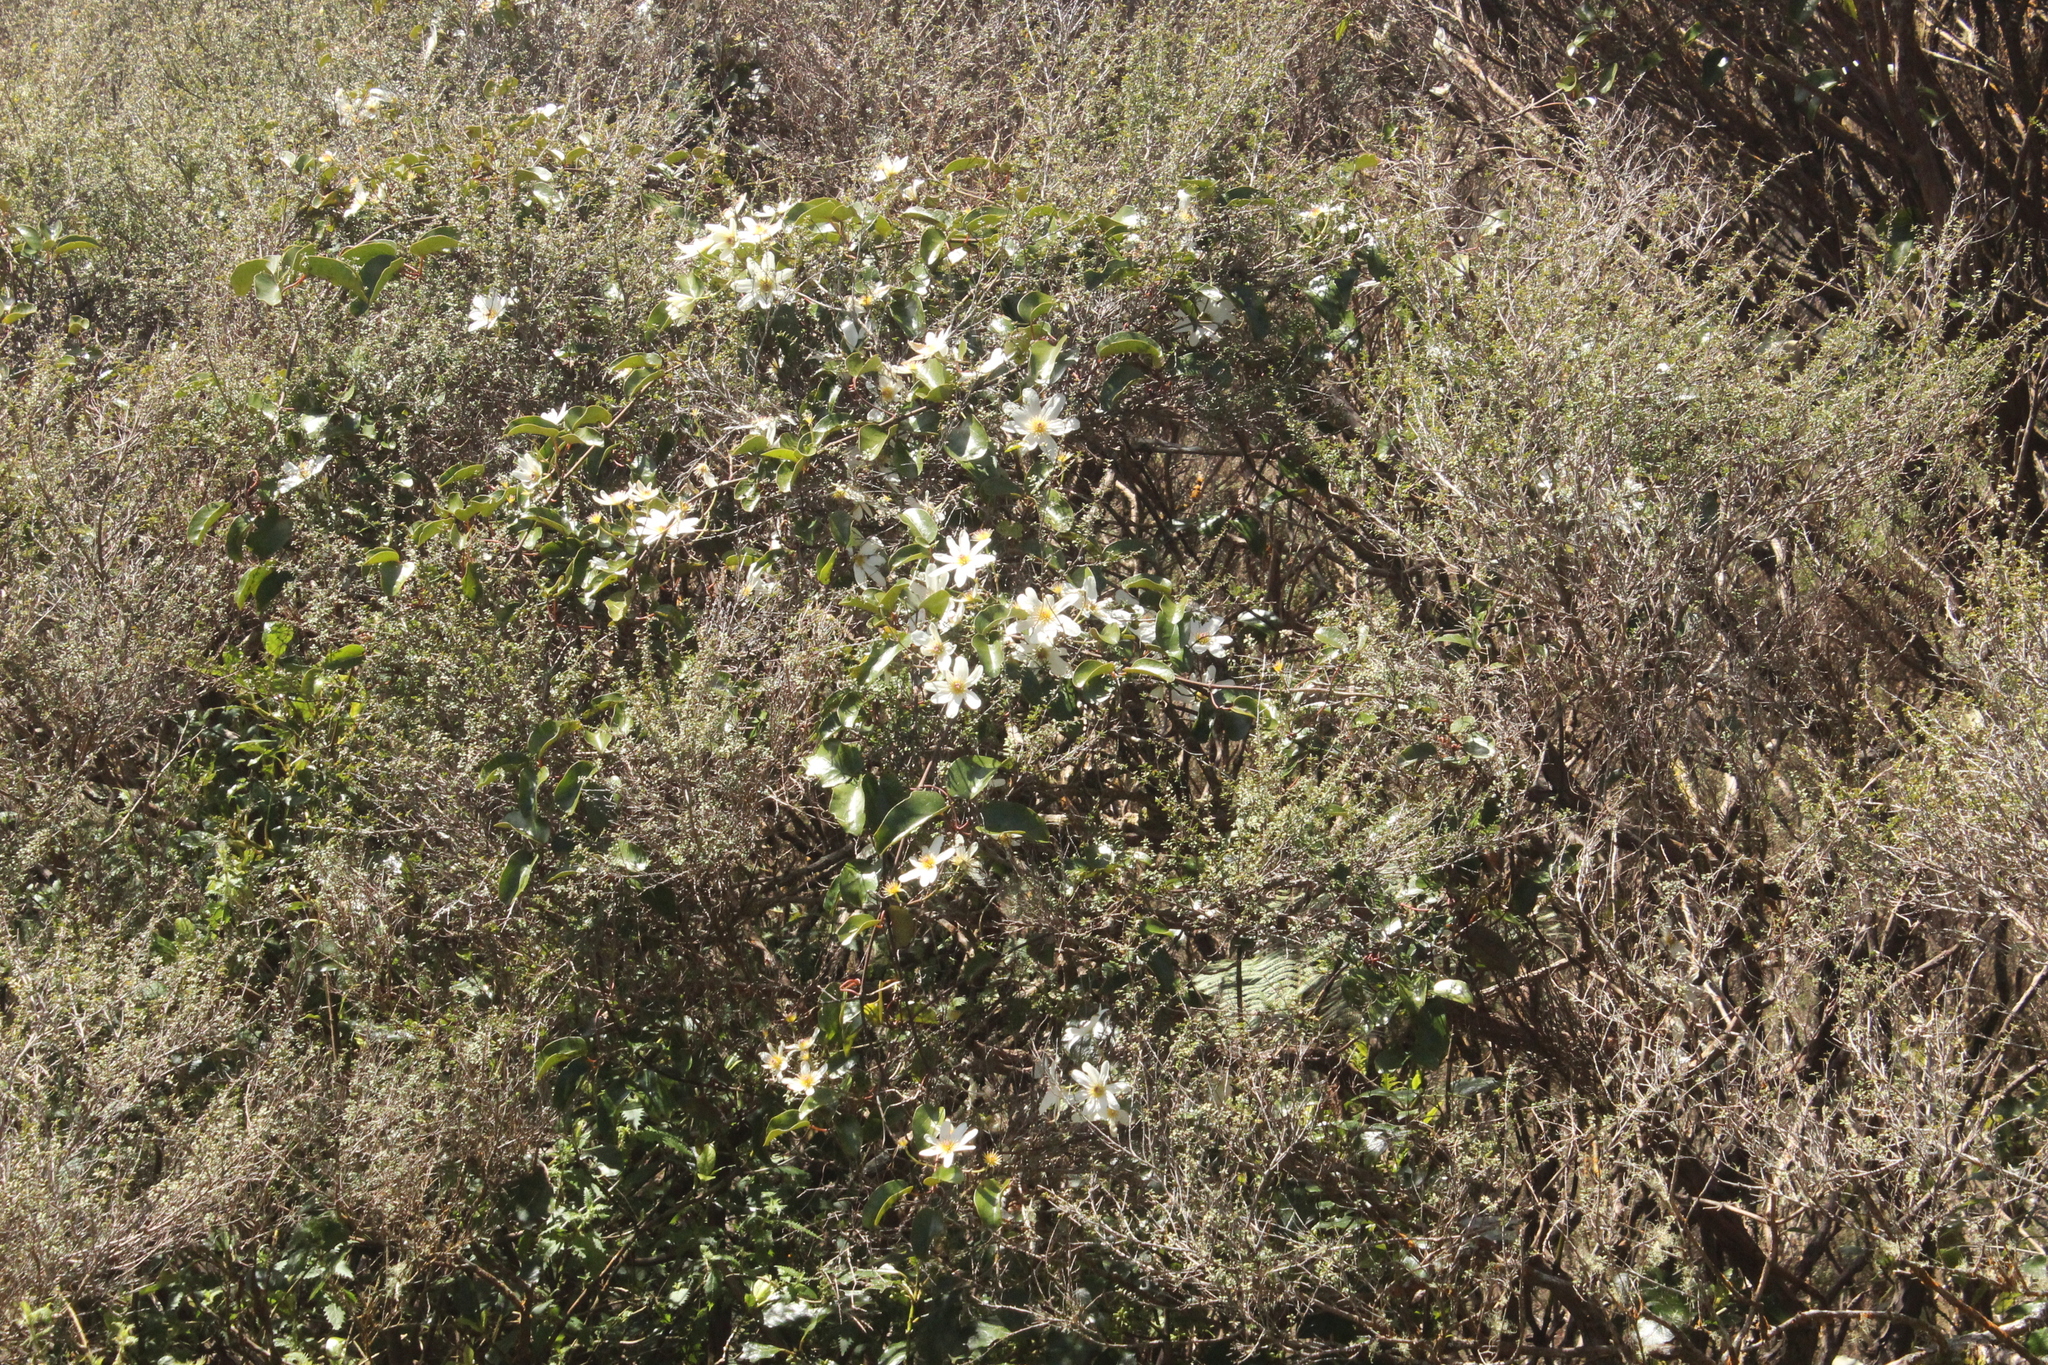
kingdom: Plantae
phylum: Tracheophyta
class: Magnoliopsida
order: Ranunculales
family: Ranunculaceae
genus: Clematis
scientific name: Clematis paniculata
